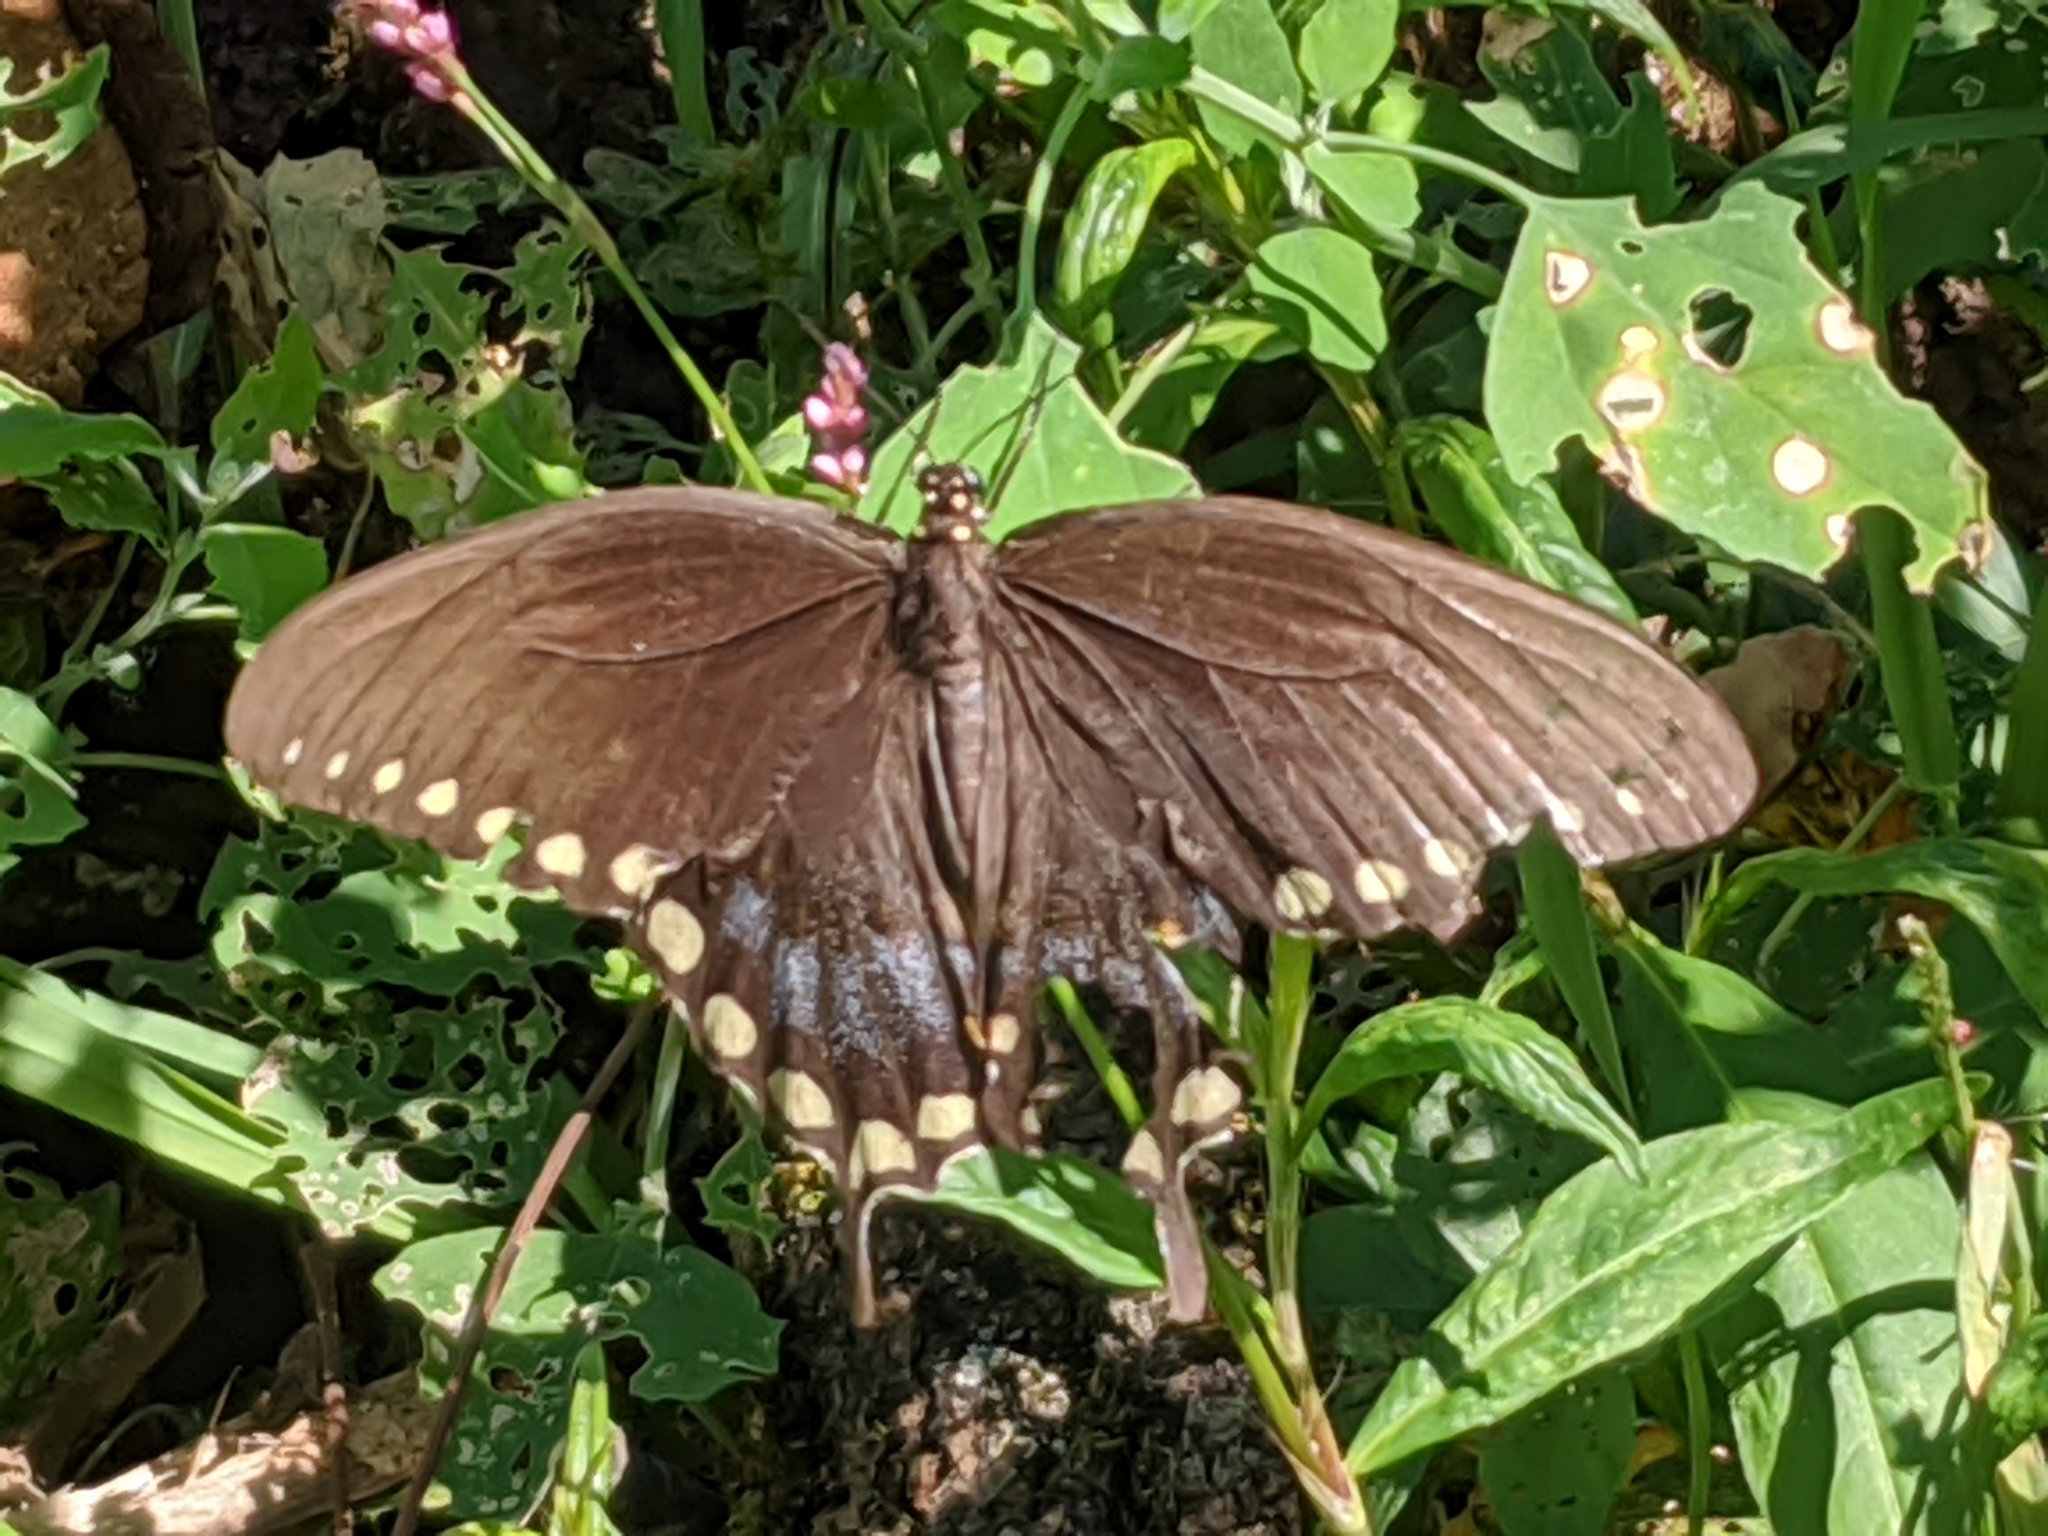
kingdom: Animalia
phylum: Arthropoda
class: Insecta
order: Lepidoptera
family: Papilionidae
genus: Papilio
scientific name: Papilio troilus
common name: Spicebush swallowtail
